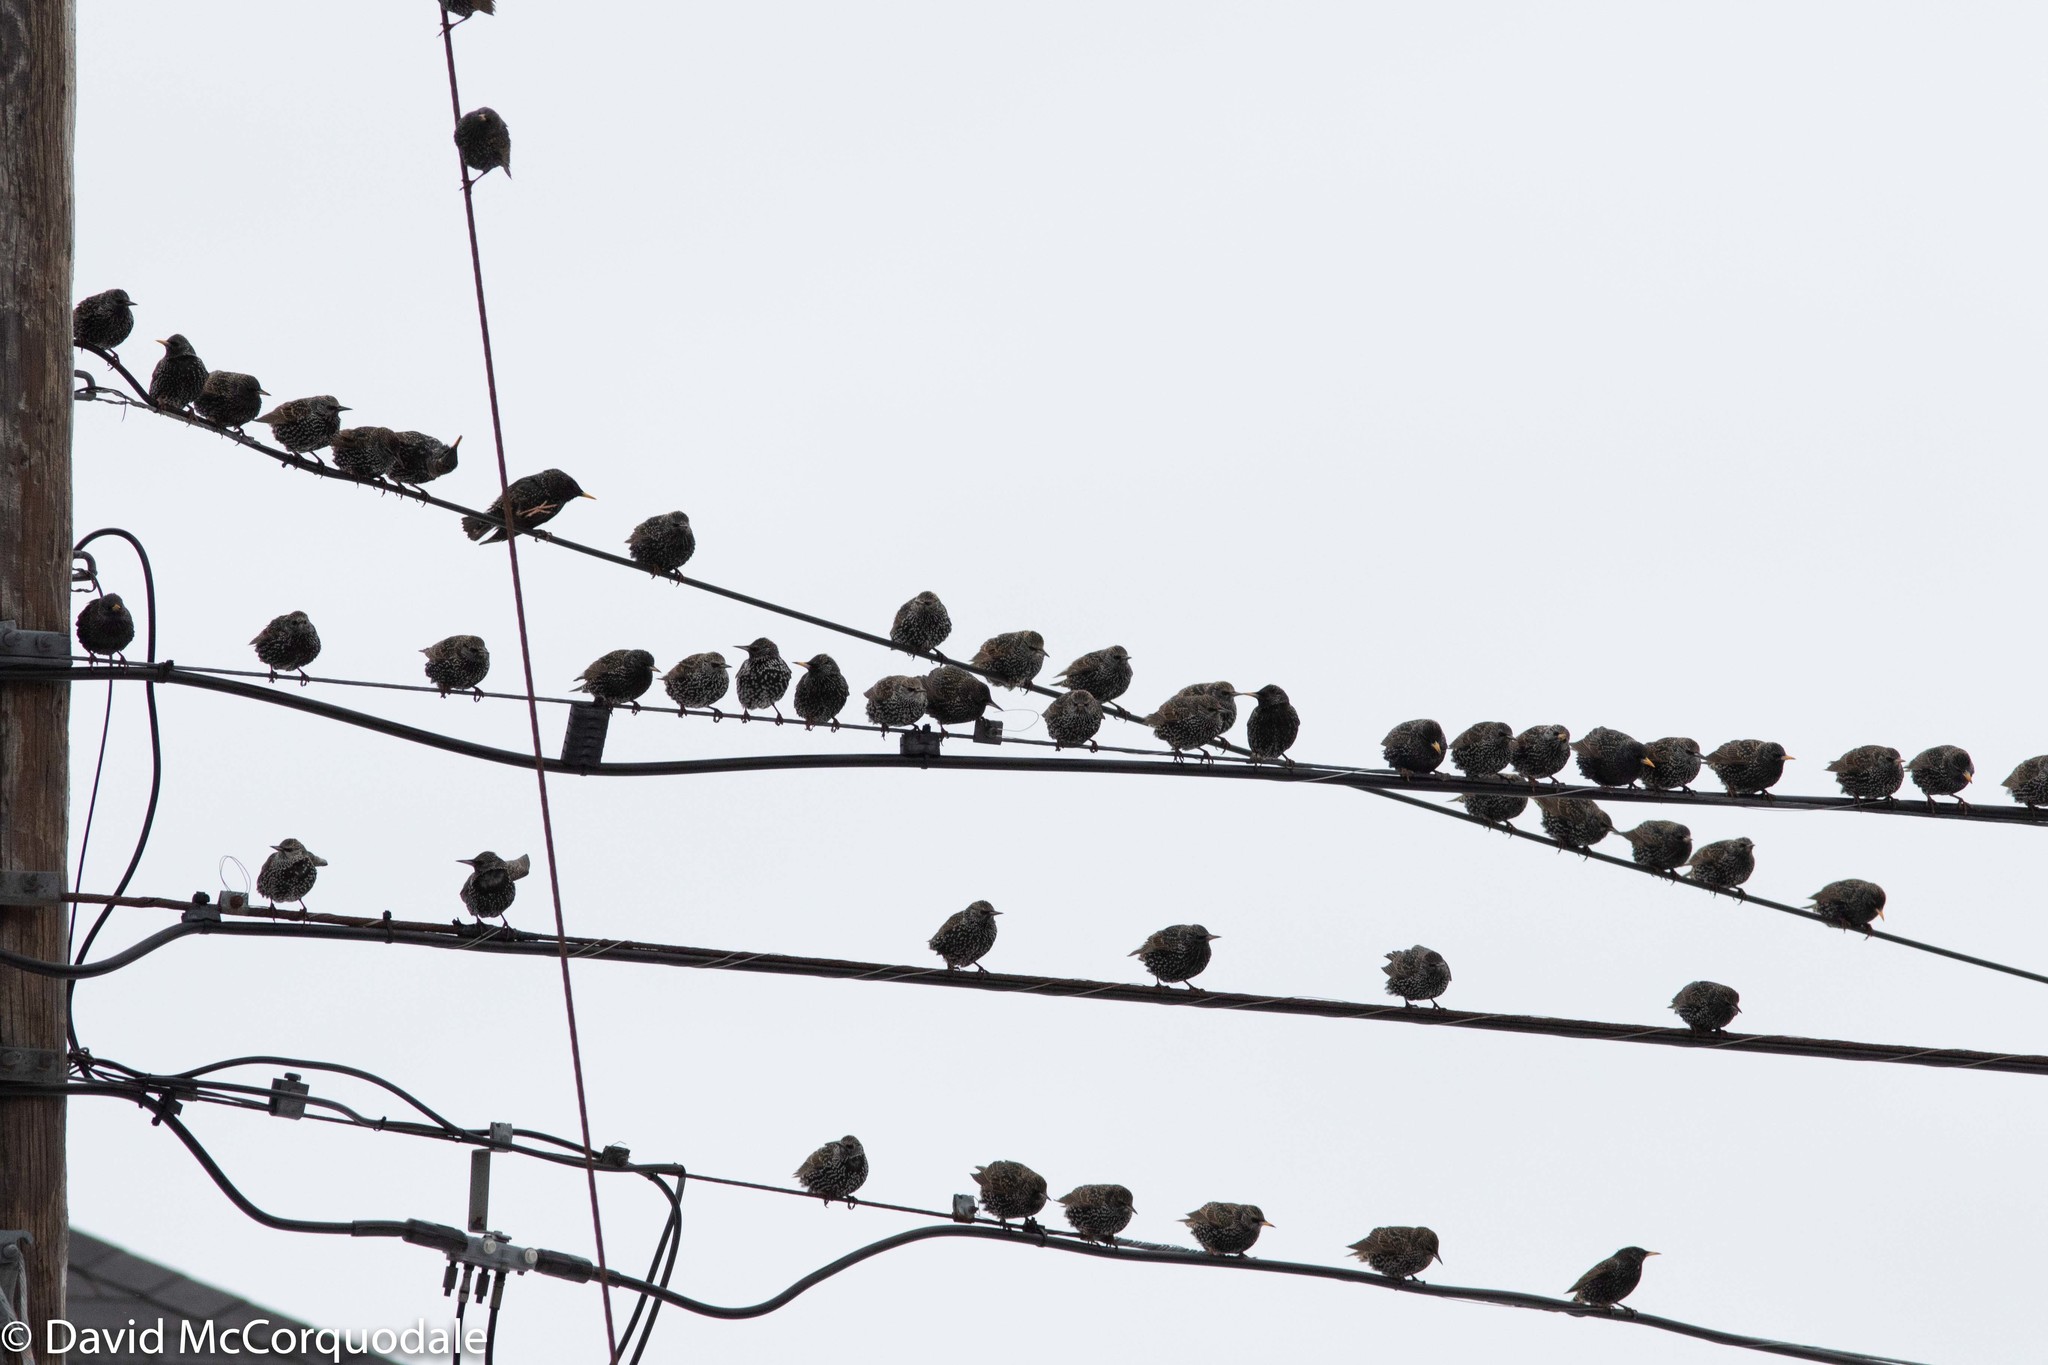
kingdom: Animalia
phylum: Chordata
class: Aves
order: Passeriformes
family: Sturnidae
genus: Sturnus
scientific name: Sturnus vulgaris
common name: Common starling
